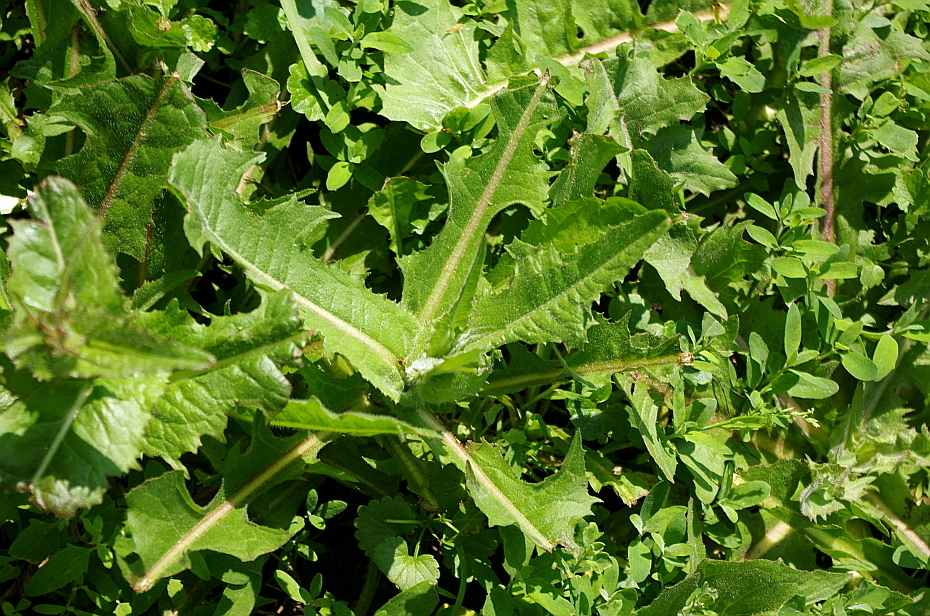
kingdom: Plantae
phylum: Tracheophyta
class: Magnoliopsida
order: Asterales
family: Asteraceae
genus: Cichorium
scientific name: Cichorium intybus
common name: Chicory
